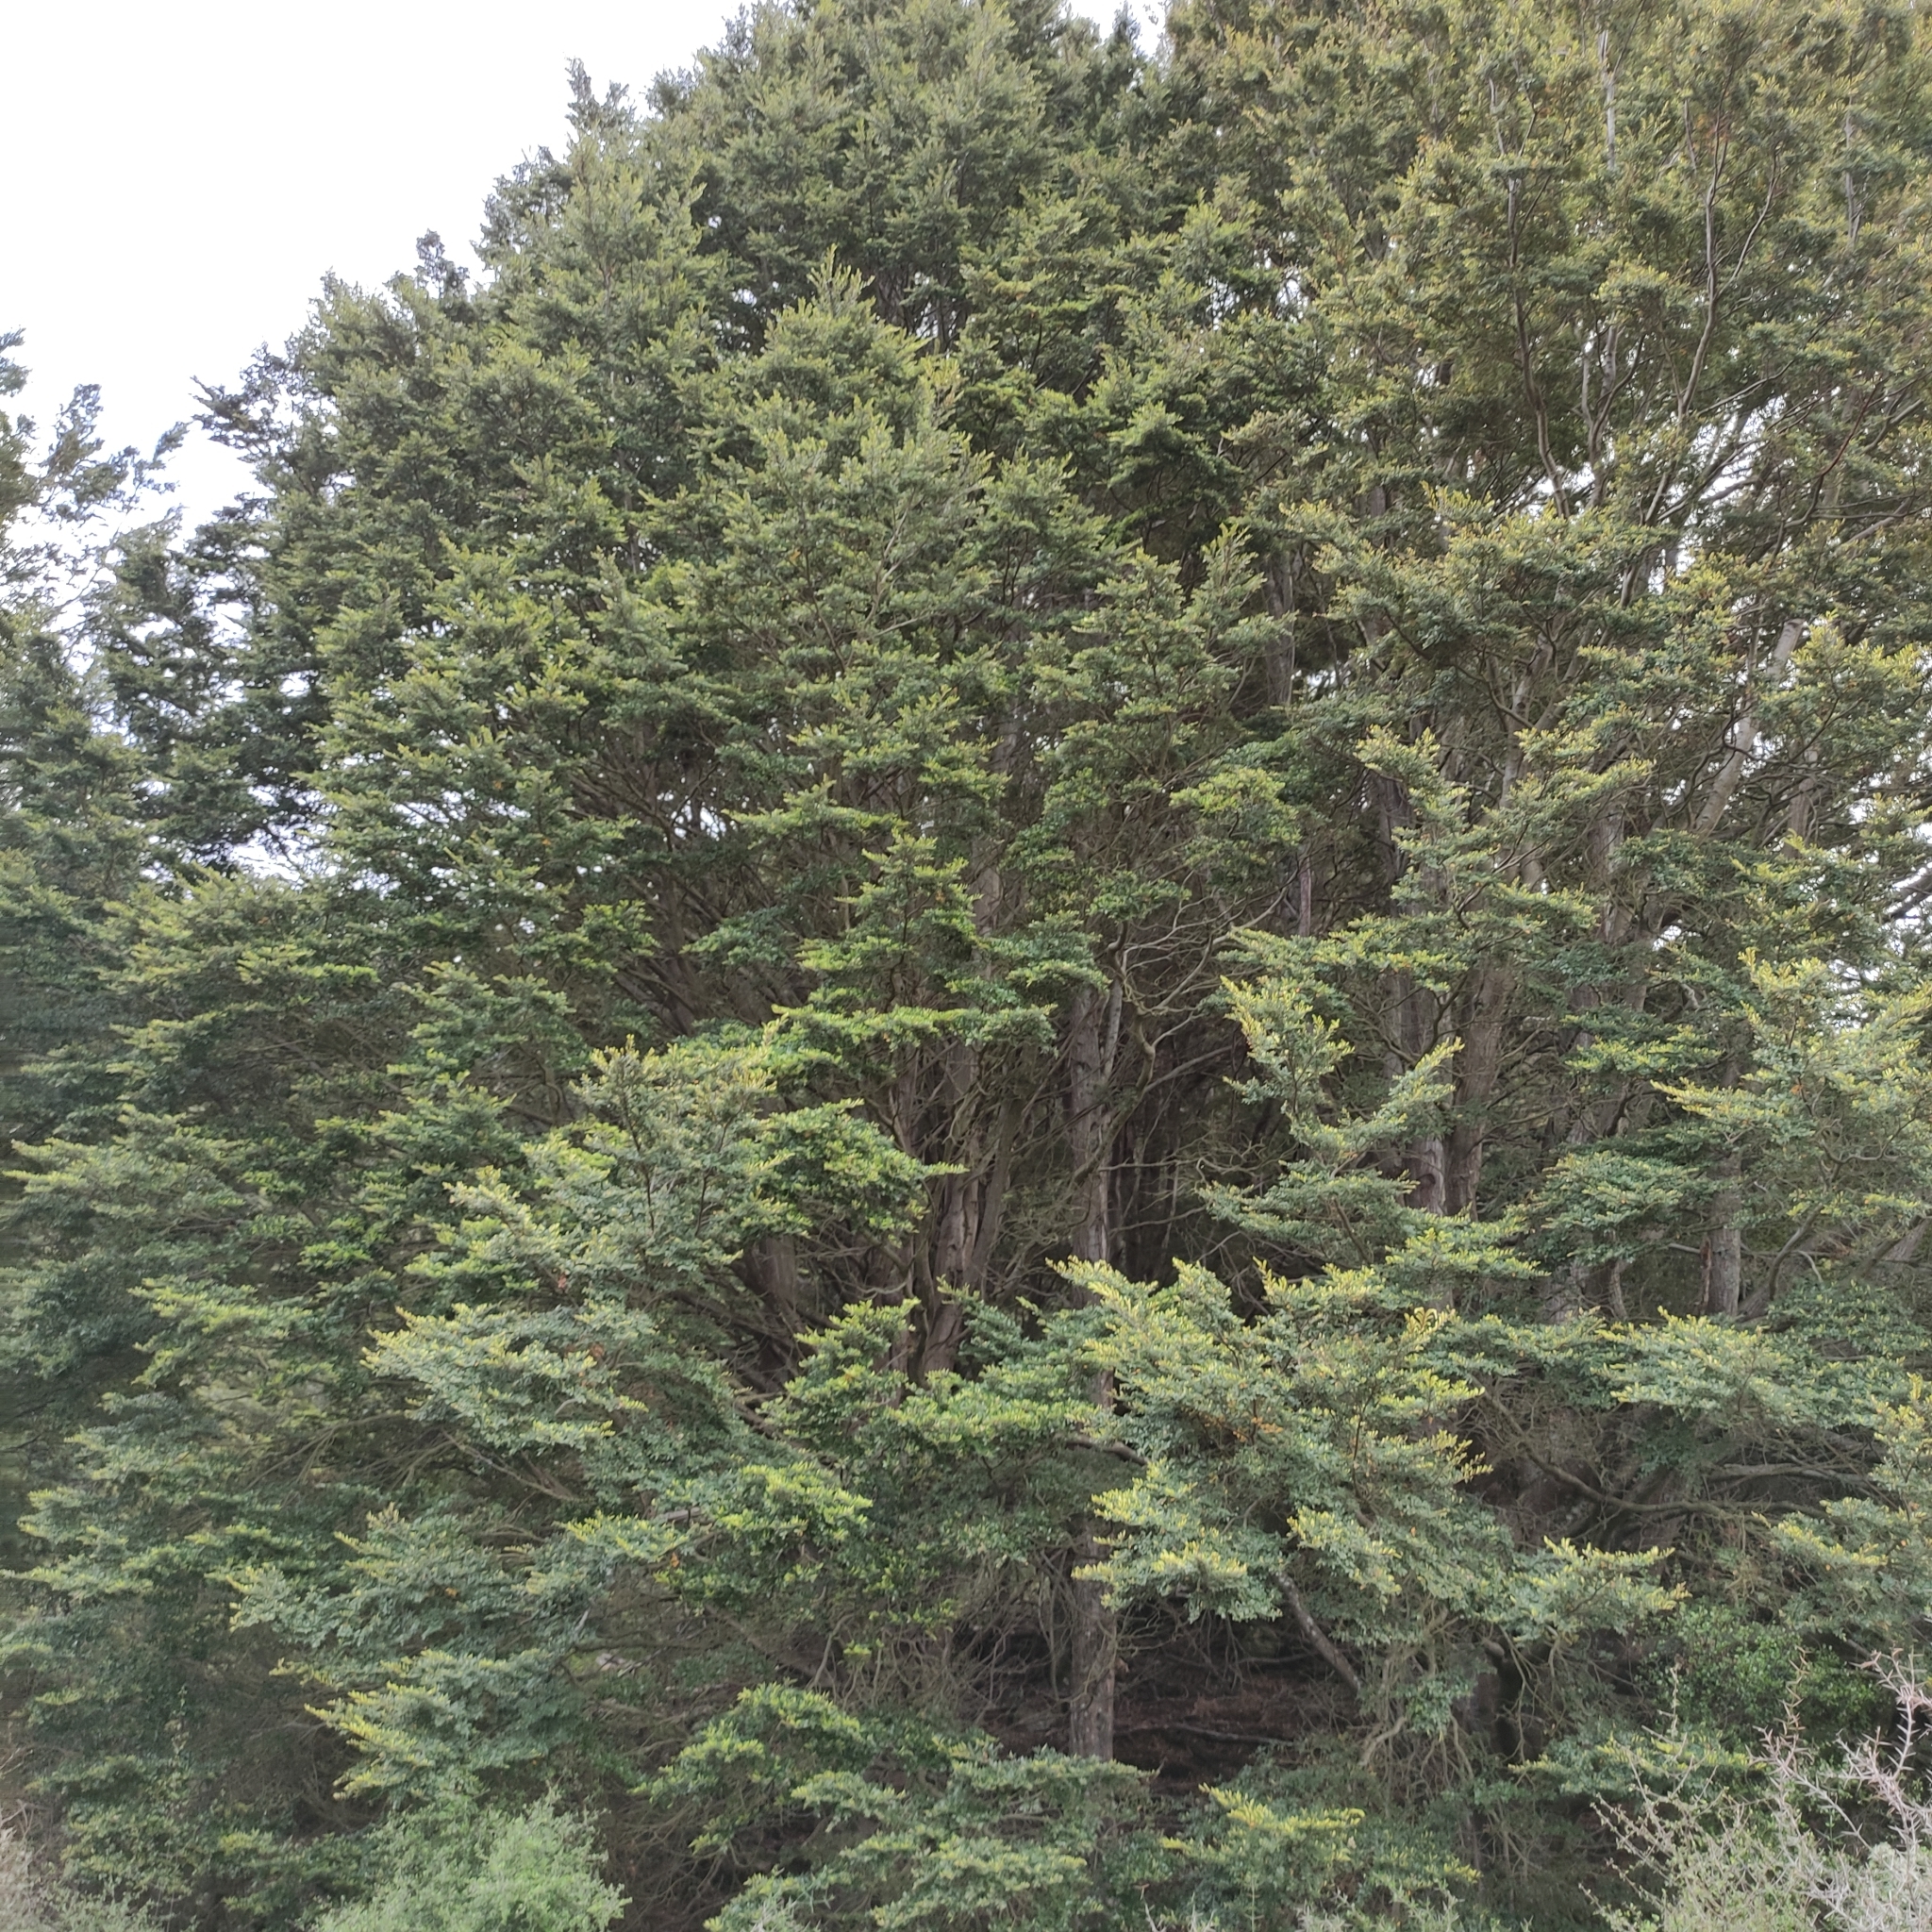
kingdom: Plantae
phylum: Tracheophyta
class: Magnoliopsida
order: Fagales
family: Nothofagaceae
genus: Nothofagus
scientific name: Nothofagus cliffortioides
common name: Mountain beech
